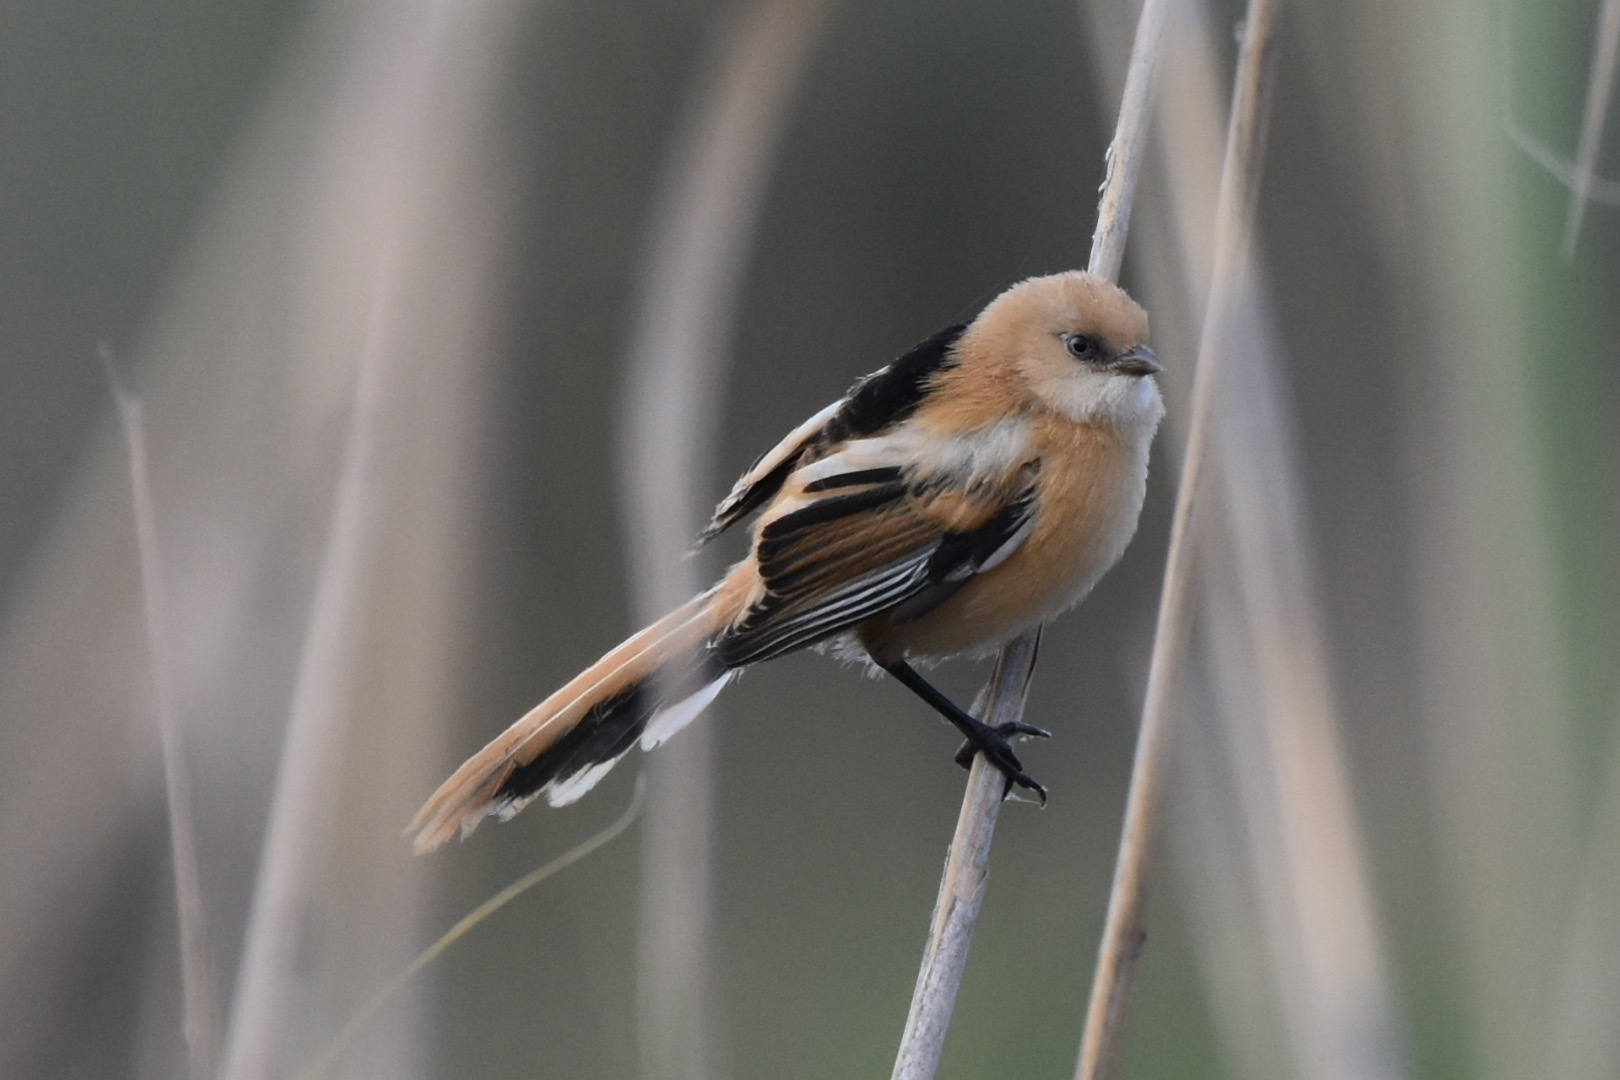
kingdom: Animalia
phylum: Chordata
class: Aves
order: Passeriformes
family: Panuridae
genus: Panurus
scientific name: Panurus biarmicus
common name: Bearded reedling
